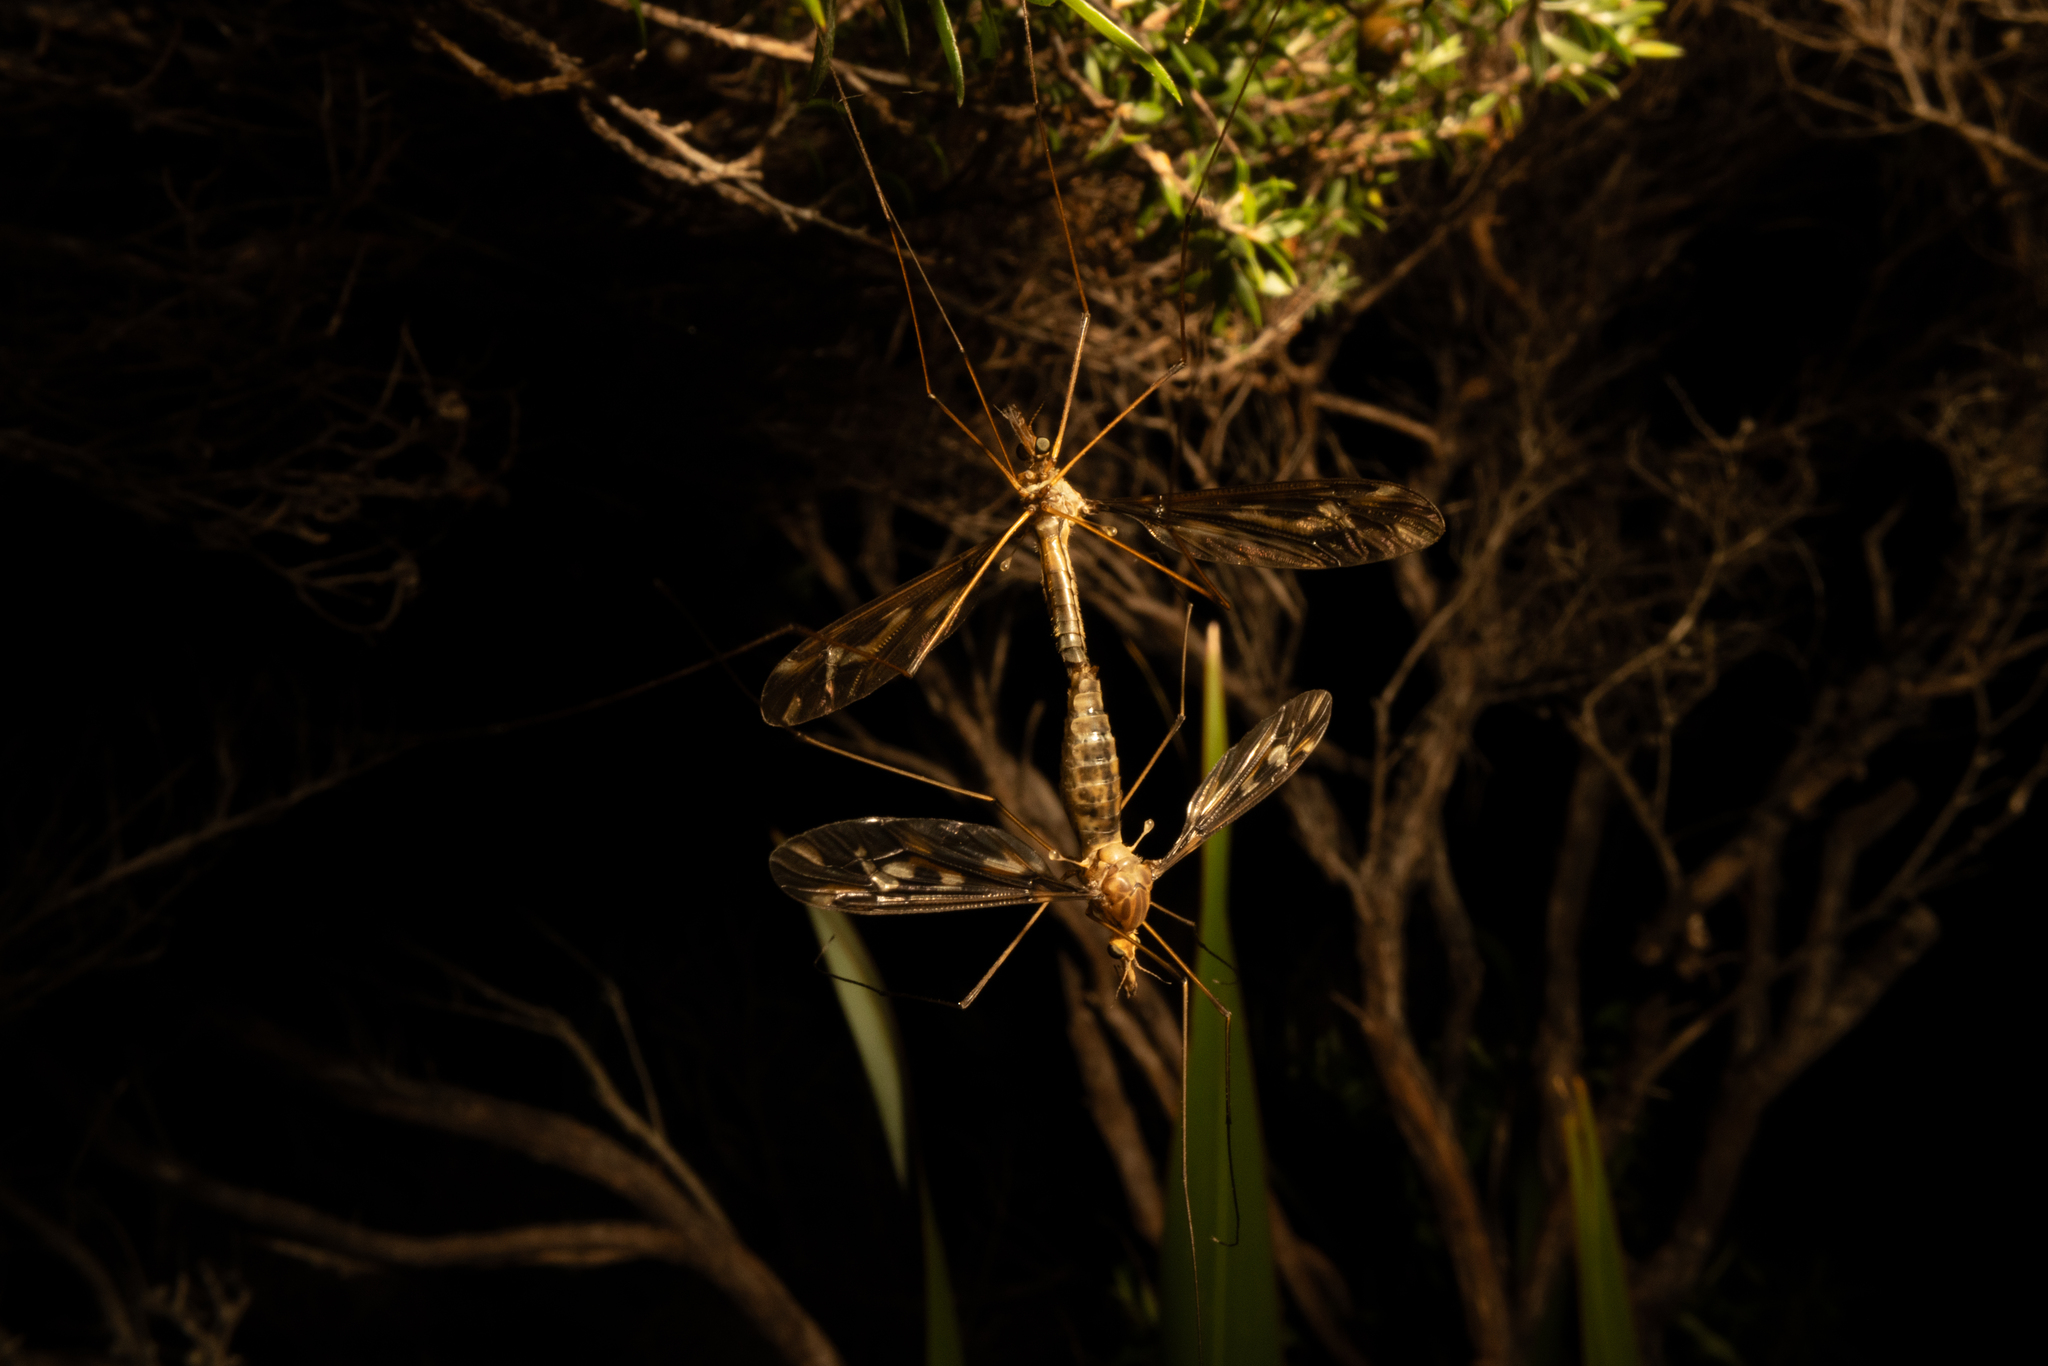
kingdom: Animalia
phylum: Arthropoda
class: Insecta
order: Diptera
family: Tipulidae
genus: Leptotarsus
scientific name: Leptotarsus huttoni
